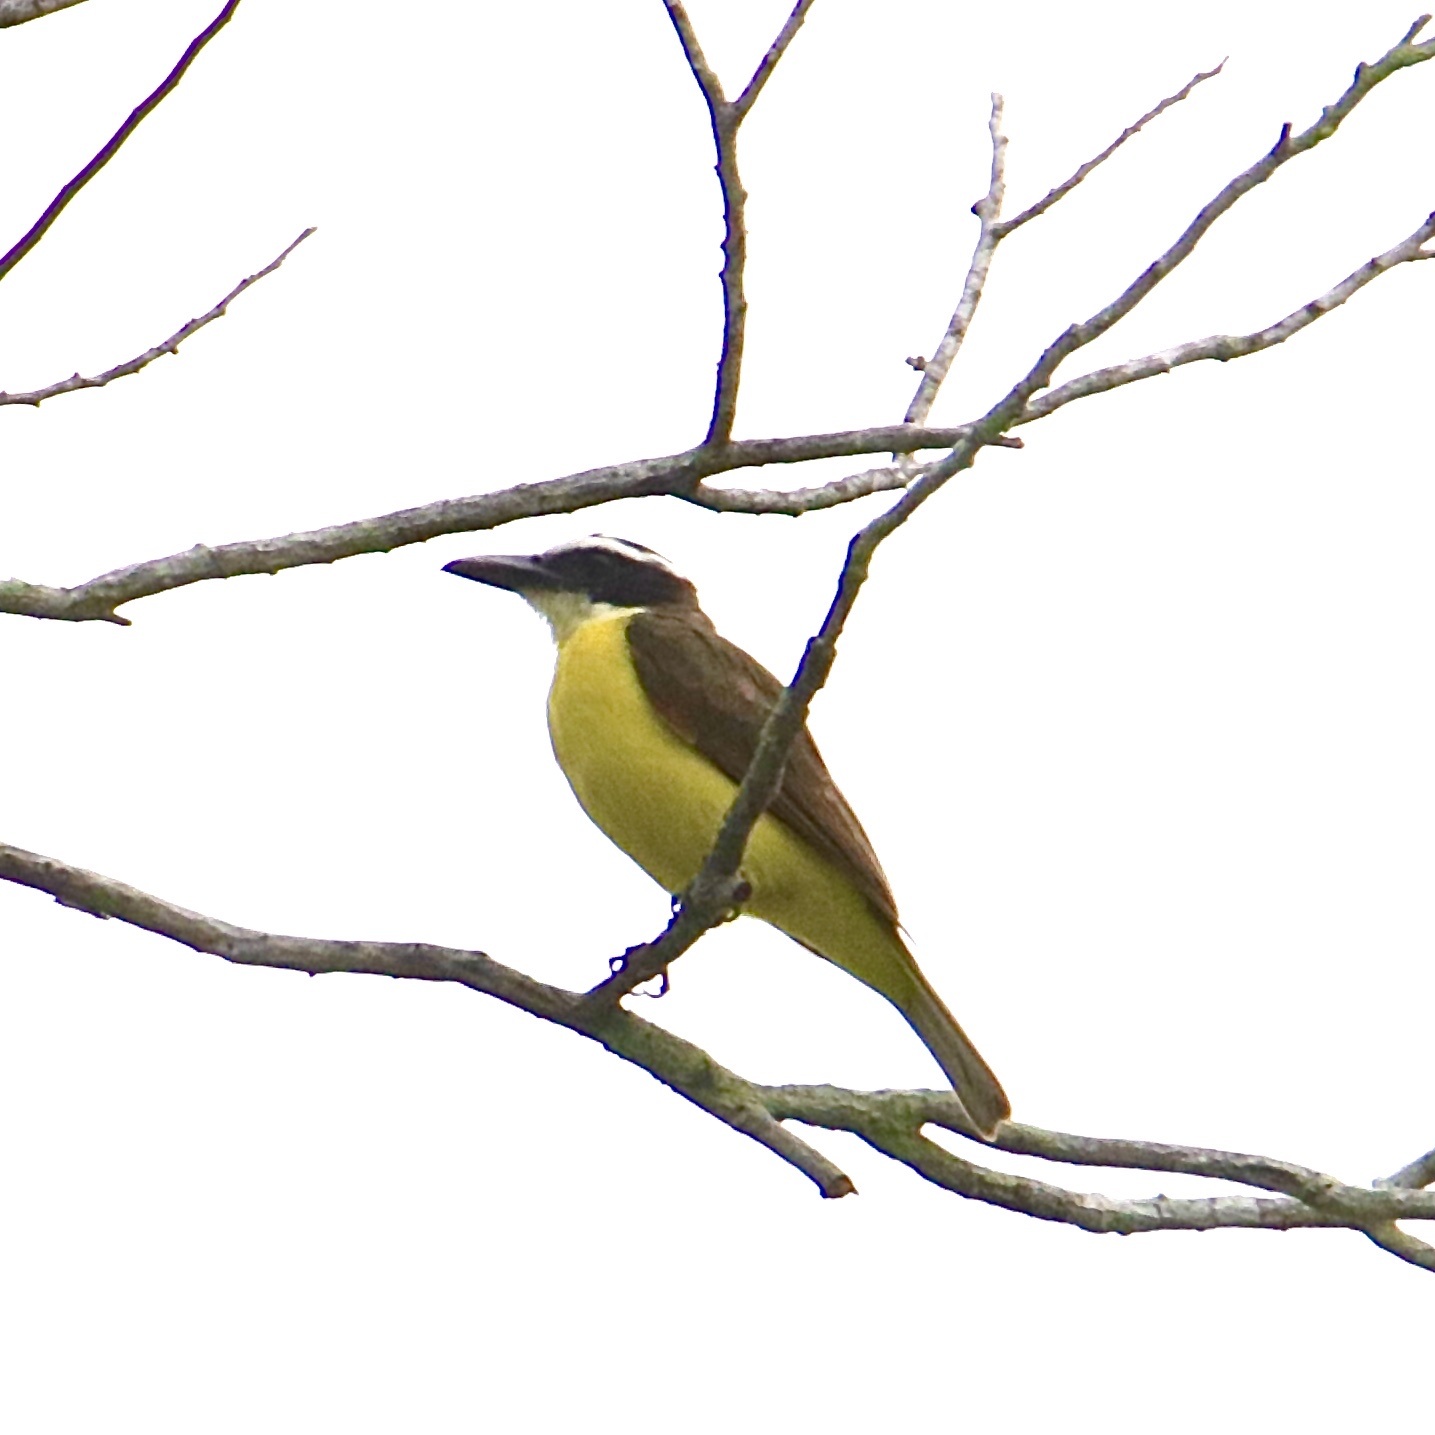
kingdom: Animalia
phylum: Chordata
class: Aves
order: Passeriformes
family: Tyrannidae
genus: Megarynchus
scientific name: Megarynchus pitangua
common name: Boat-billed flycatcher
